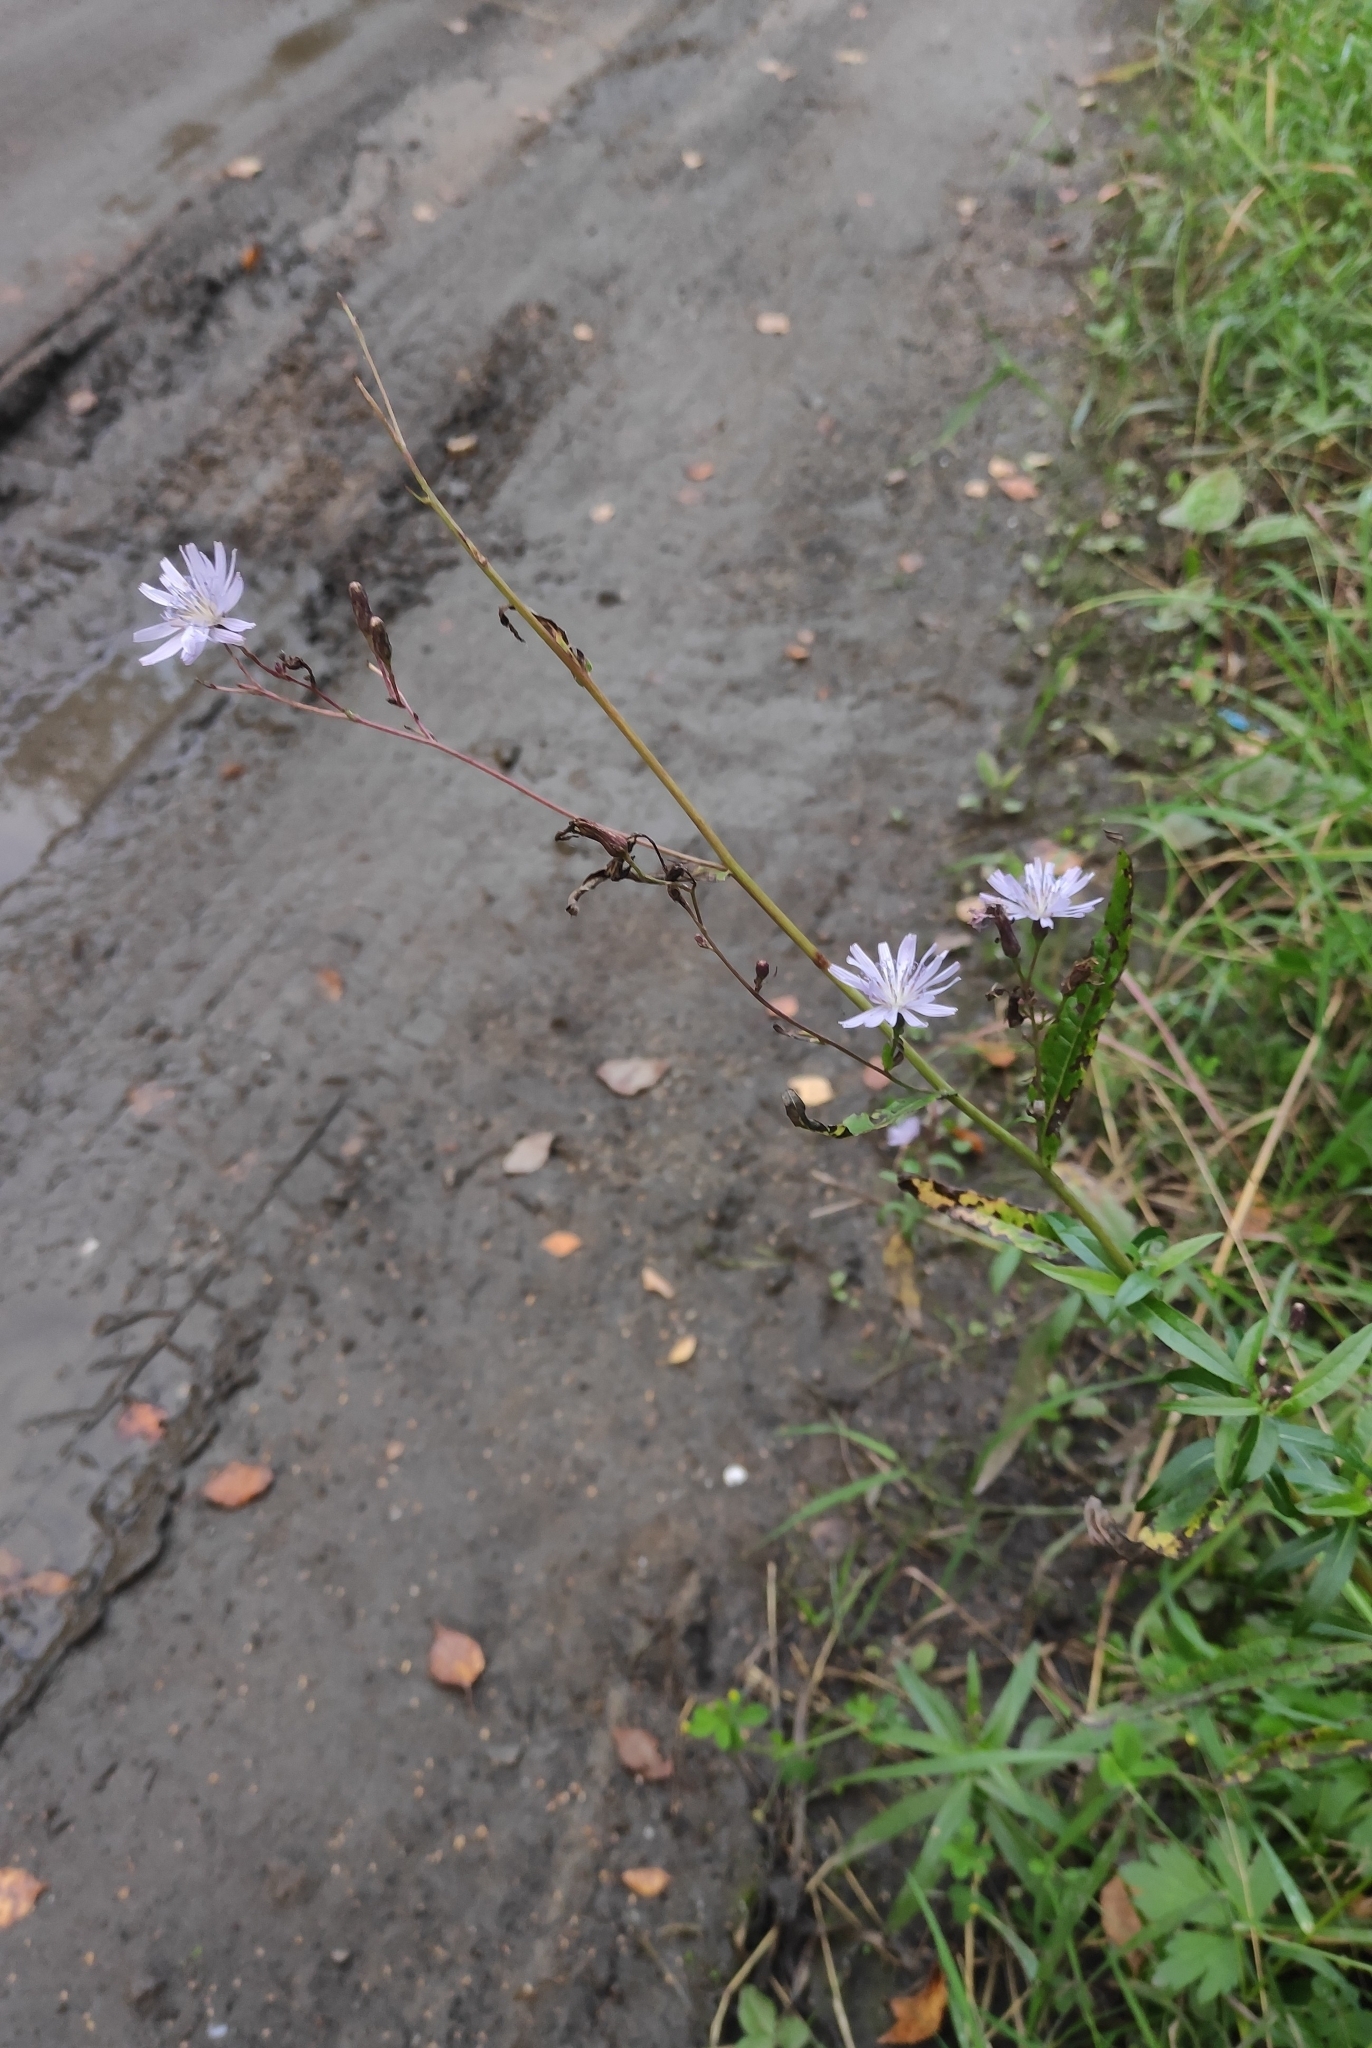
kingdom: Plantae
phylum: Tracheophyta
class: Magnoliopsida
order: Asterales
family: Asteraceae
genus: Lactuca
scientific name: Lactuca sibirica
